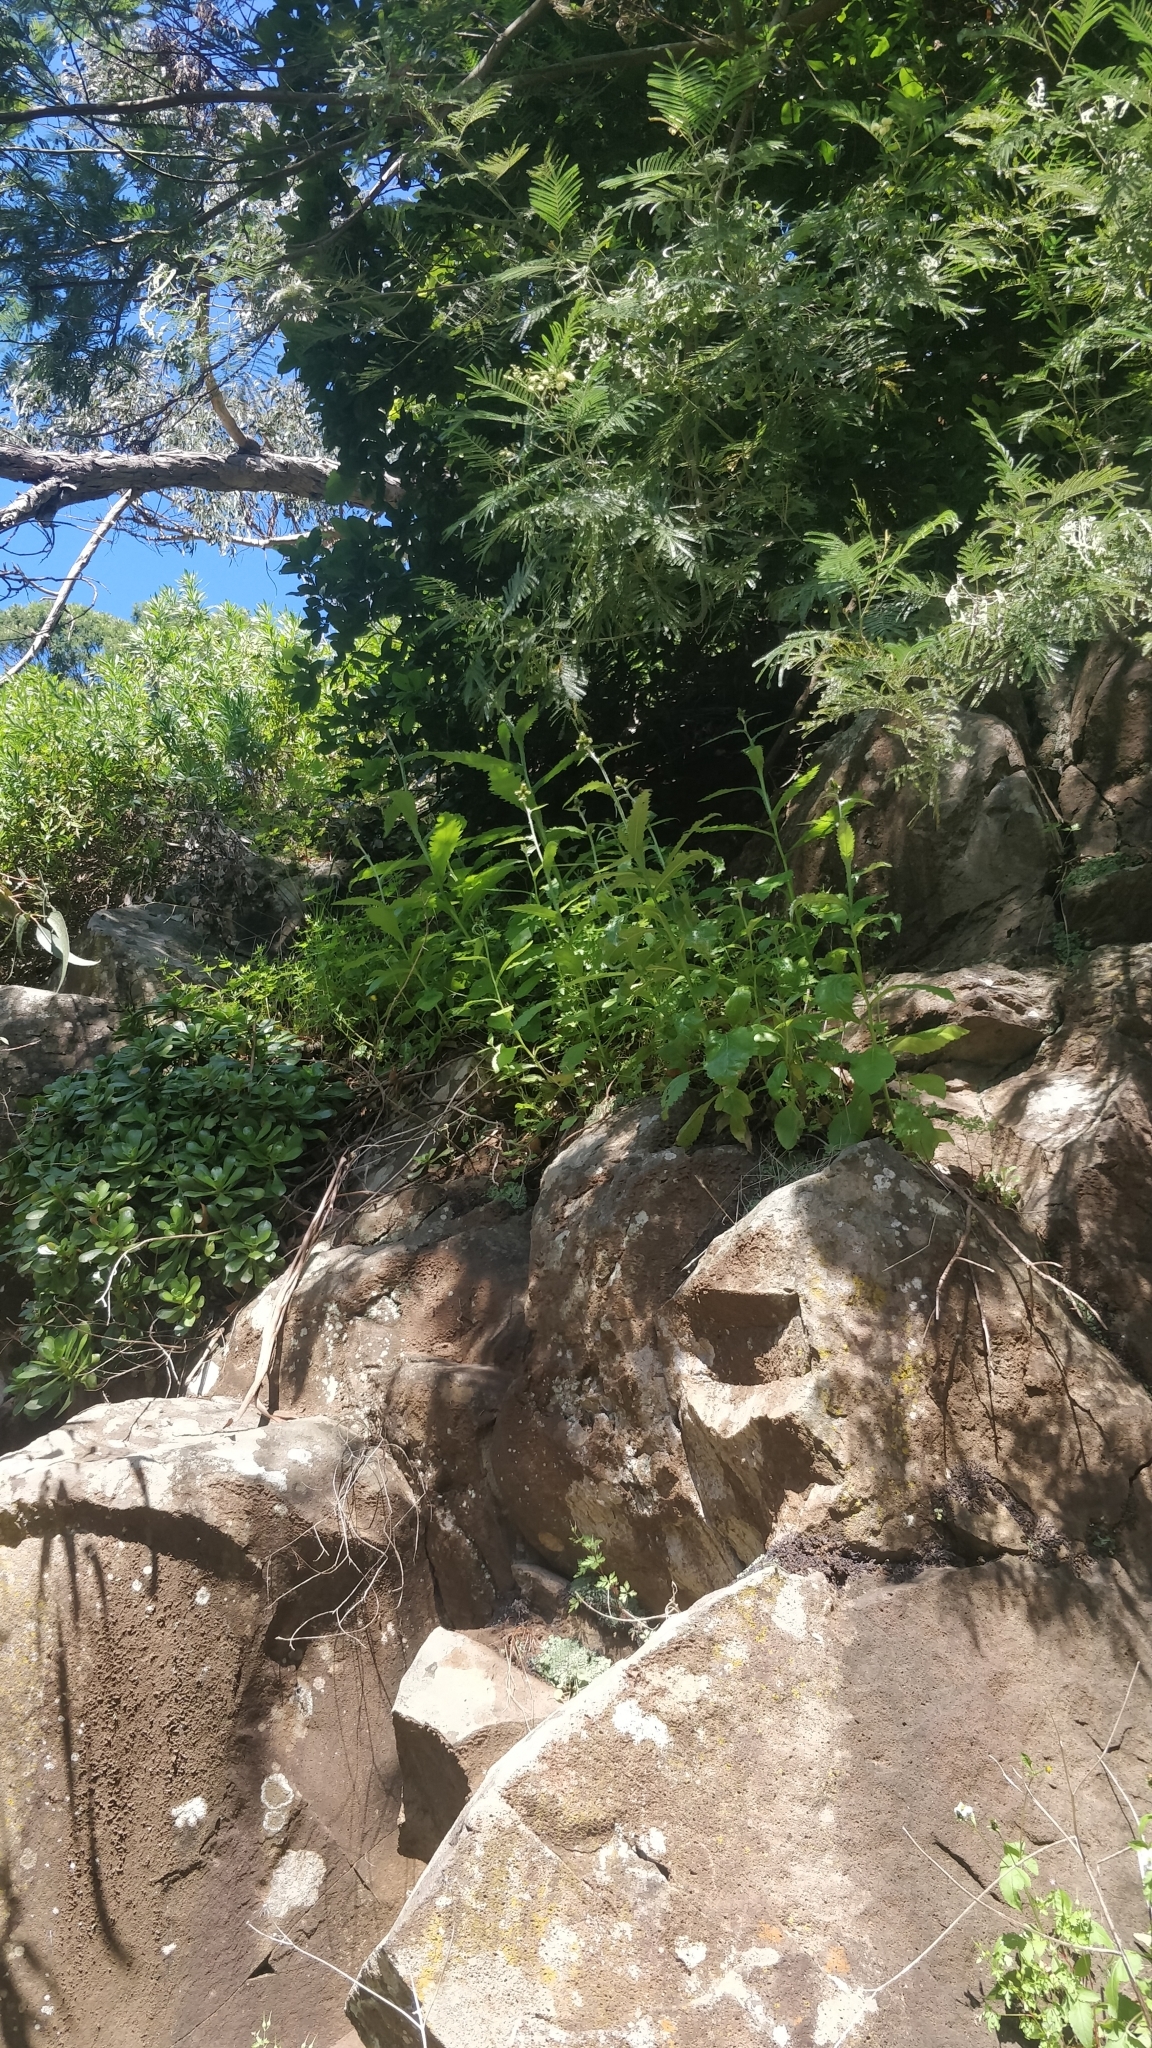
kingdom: Plantae
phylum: Tracheophyta
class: Magnoliopsida
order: Asterales
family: Asteraceae
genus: Carduus
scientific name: Carduus squarrosus
